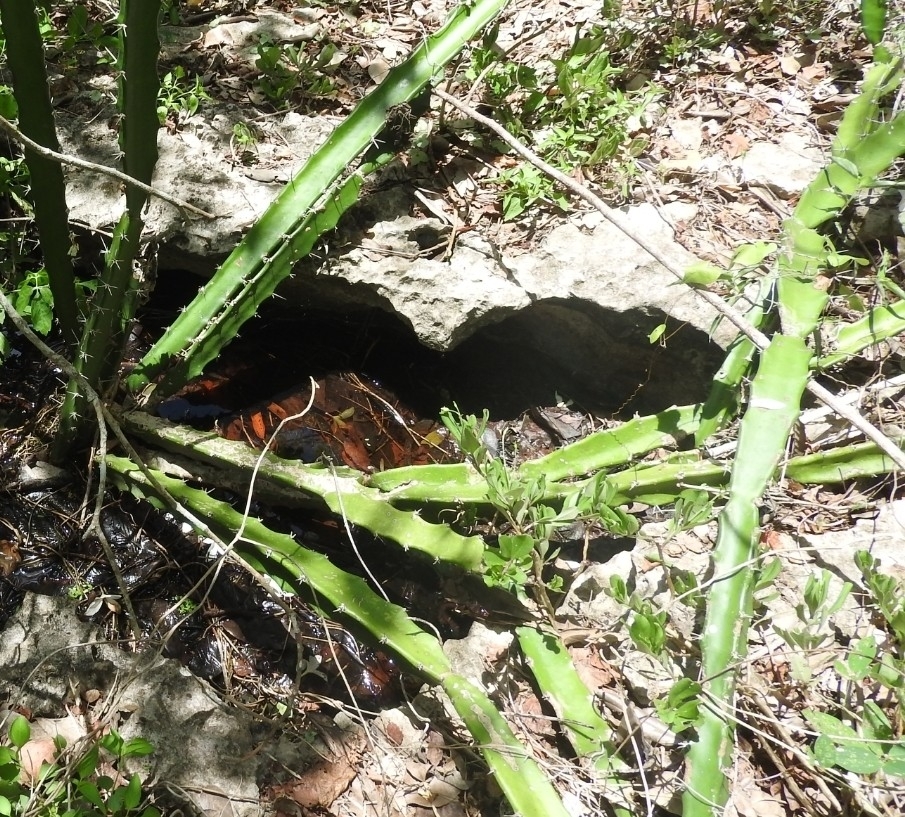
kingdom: Plantae
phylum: Tracheophyta
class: Magnoliopsida
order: Caryophyllales
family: Cactaceae
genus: Acanthocereus
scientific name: Acanthocereus tetragonus
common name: Triangle cactus
